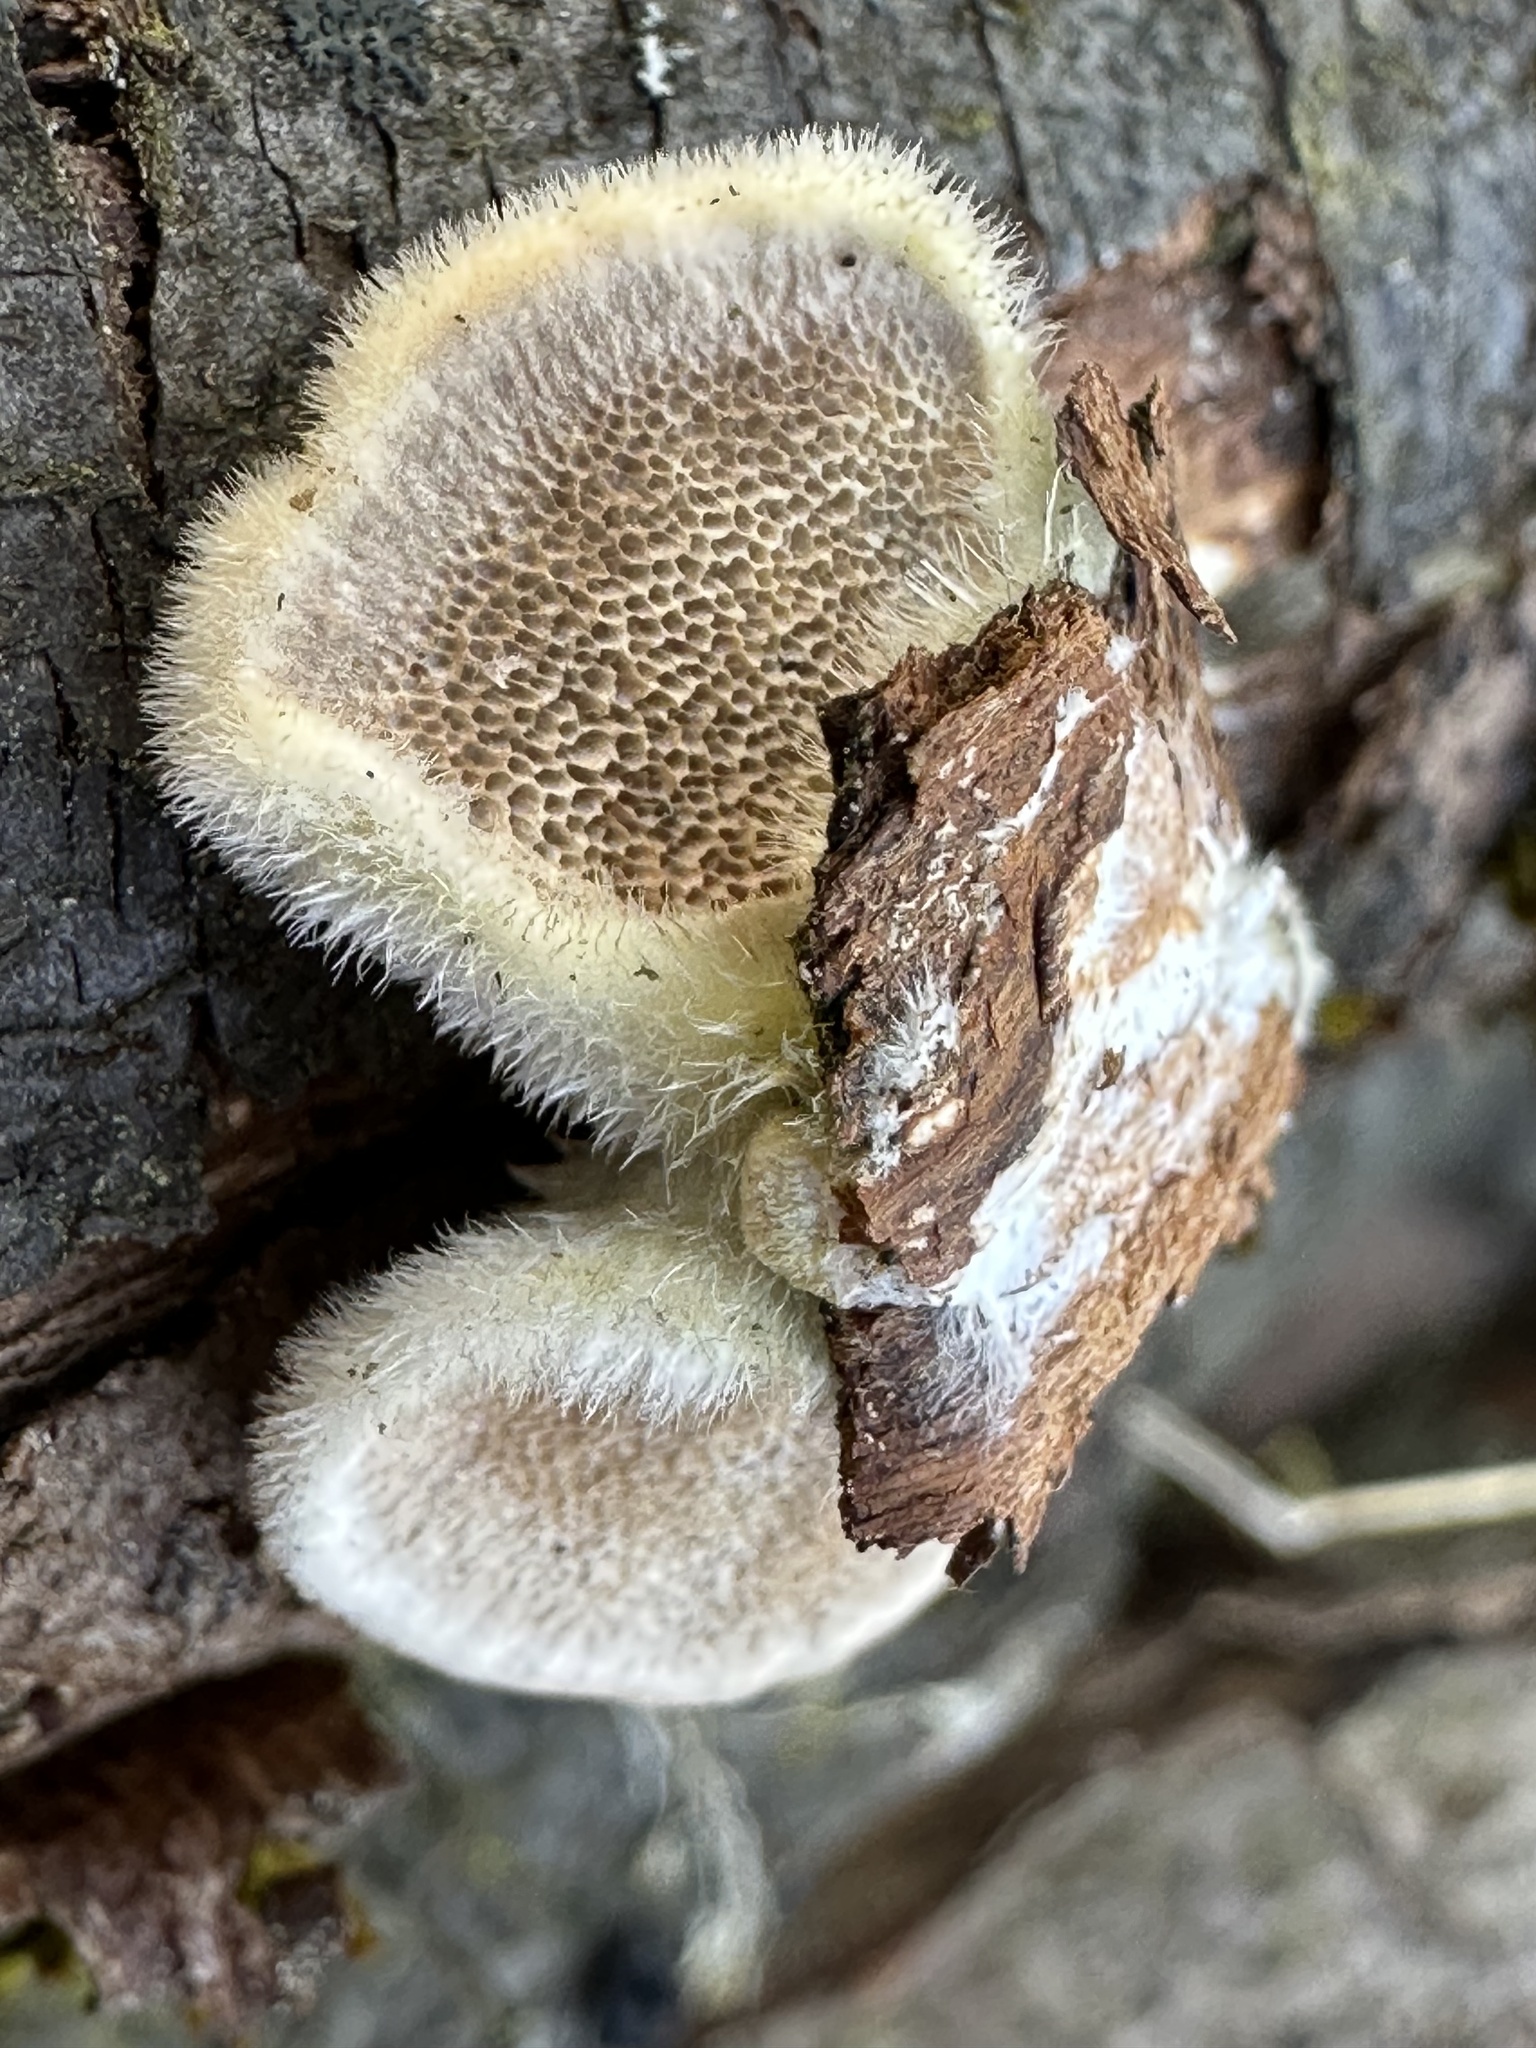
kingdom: Fungi
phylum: Basidiomycota
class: Agaricomycetes
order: Polyporales
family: Polyporaceae
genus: Trametes
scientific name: Trametes hirsuta
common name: Hairy bracket
